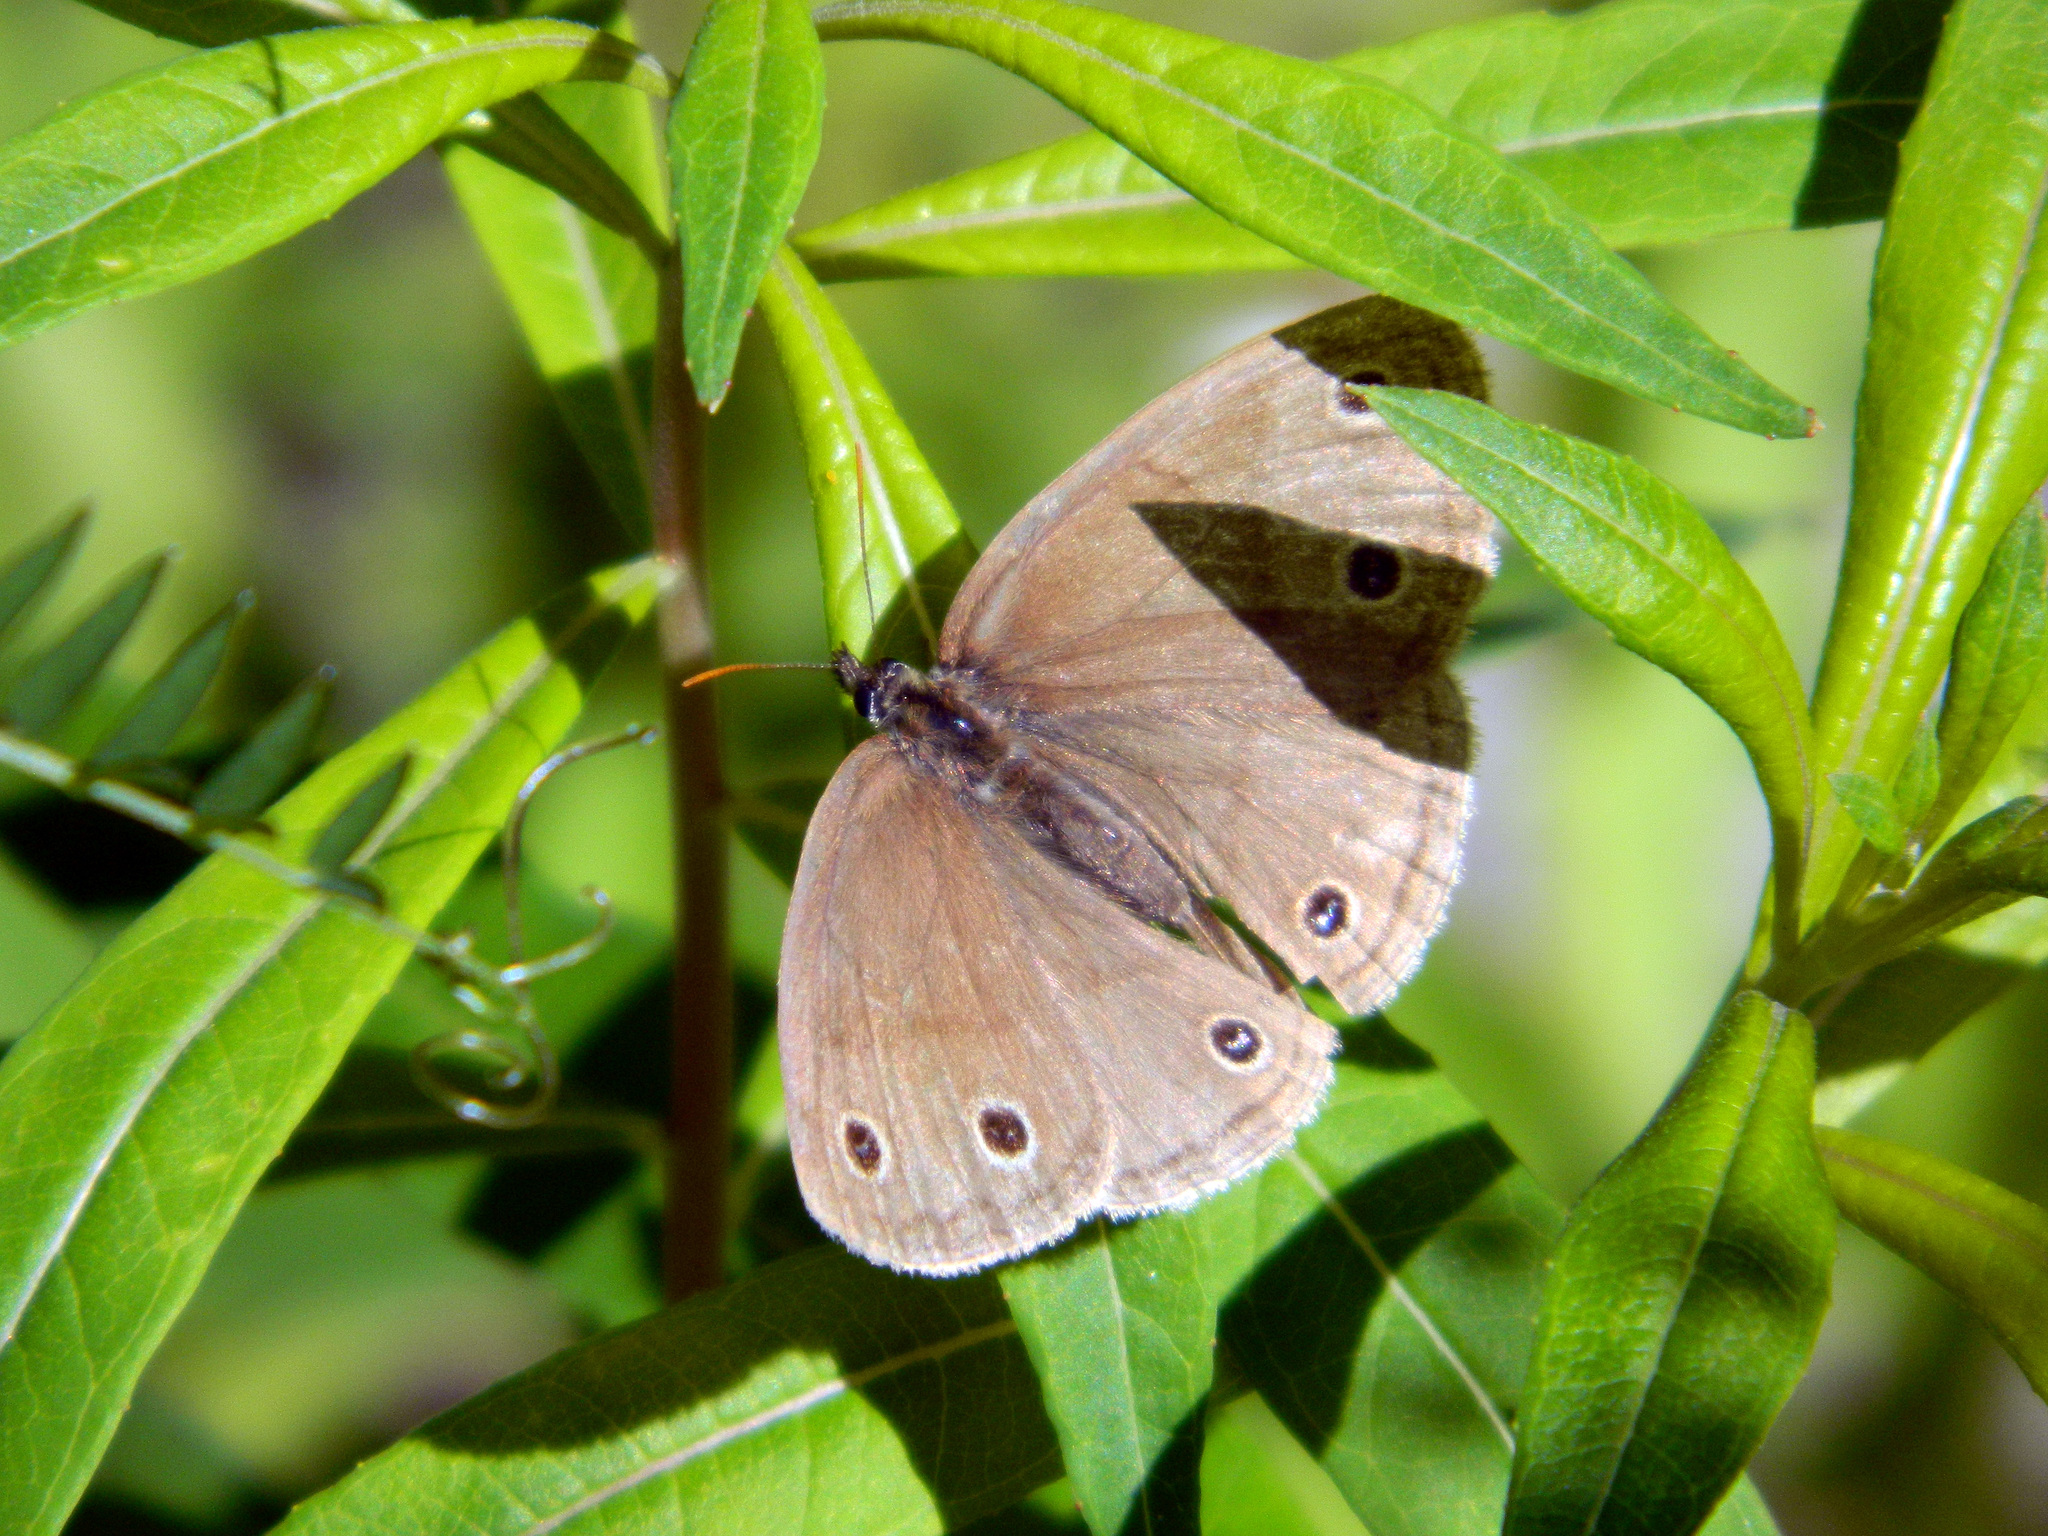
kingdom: Animalia
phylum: Arthropoda
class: Insecta
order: Lepidoptera
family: Nymphalidae
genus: Euptychia
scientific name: Euptychia cymela
